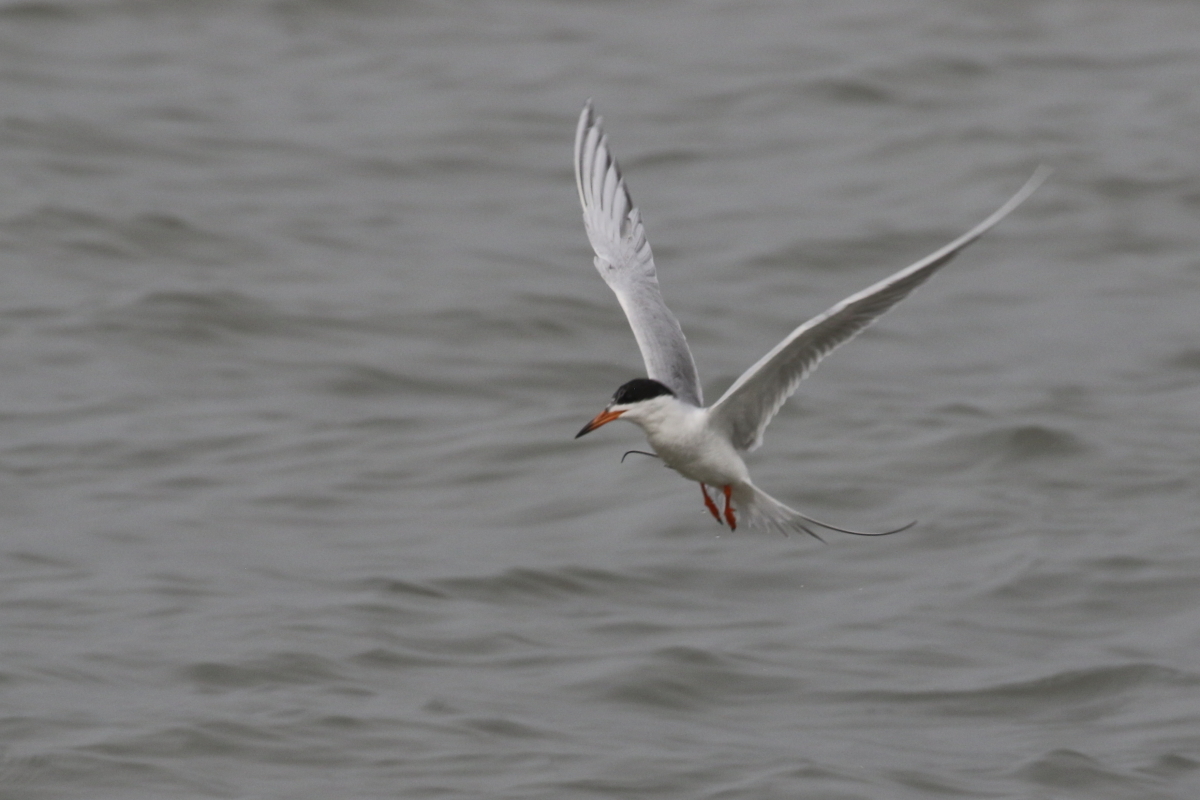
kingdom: Animalia
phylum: Chordata
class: Aves
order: Charadriiformes
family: Laridae
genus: Sterna
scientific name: Sterna forsteri
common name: Forster's tern
